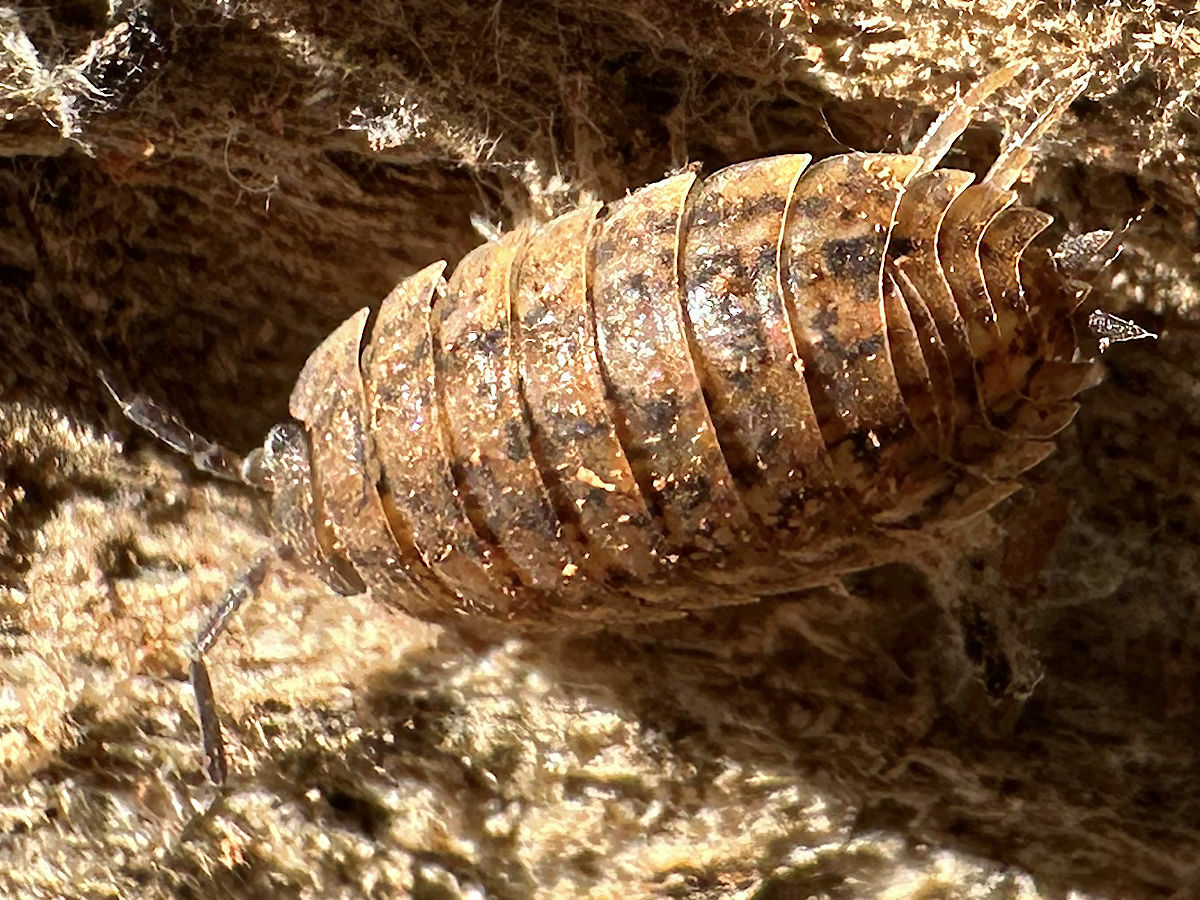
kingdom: Animalia
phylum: Arthropoda
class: Malacostraca
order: Isopoda
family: Trachelipodidae
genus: Trachelipus
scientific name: Trachelipus rathkii
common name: Isopod
